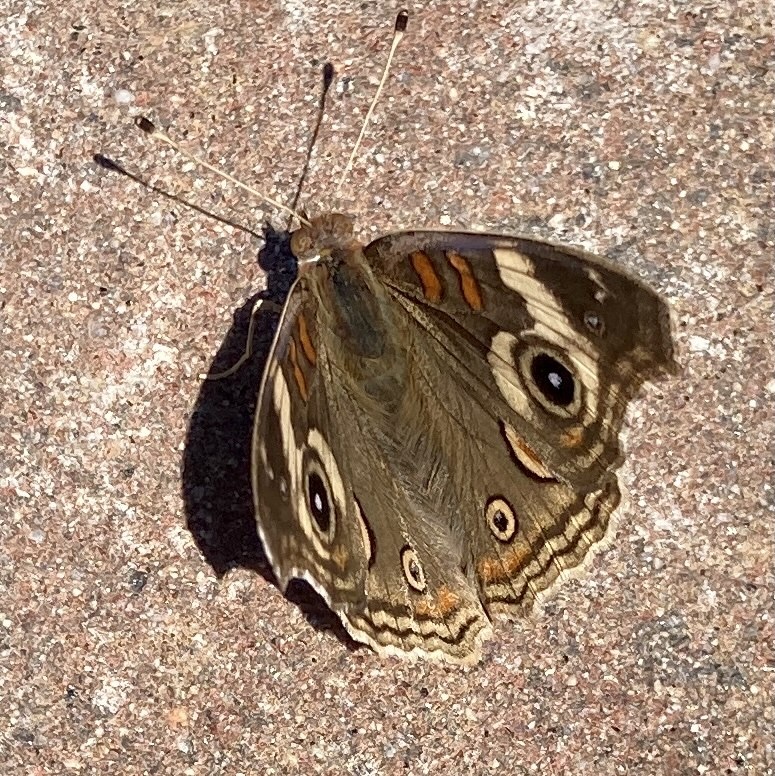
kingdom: Animalia
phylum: Arthropoda
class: Insecta
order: Lepidoptera
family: Nymphalidae
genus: Junonia
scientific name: Junonia grisea
